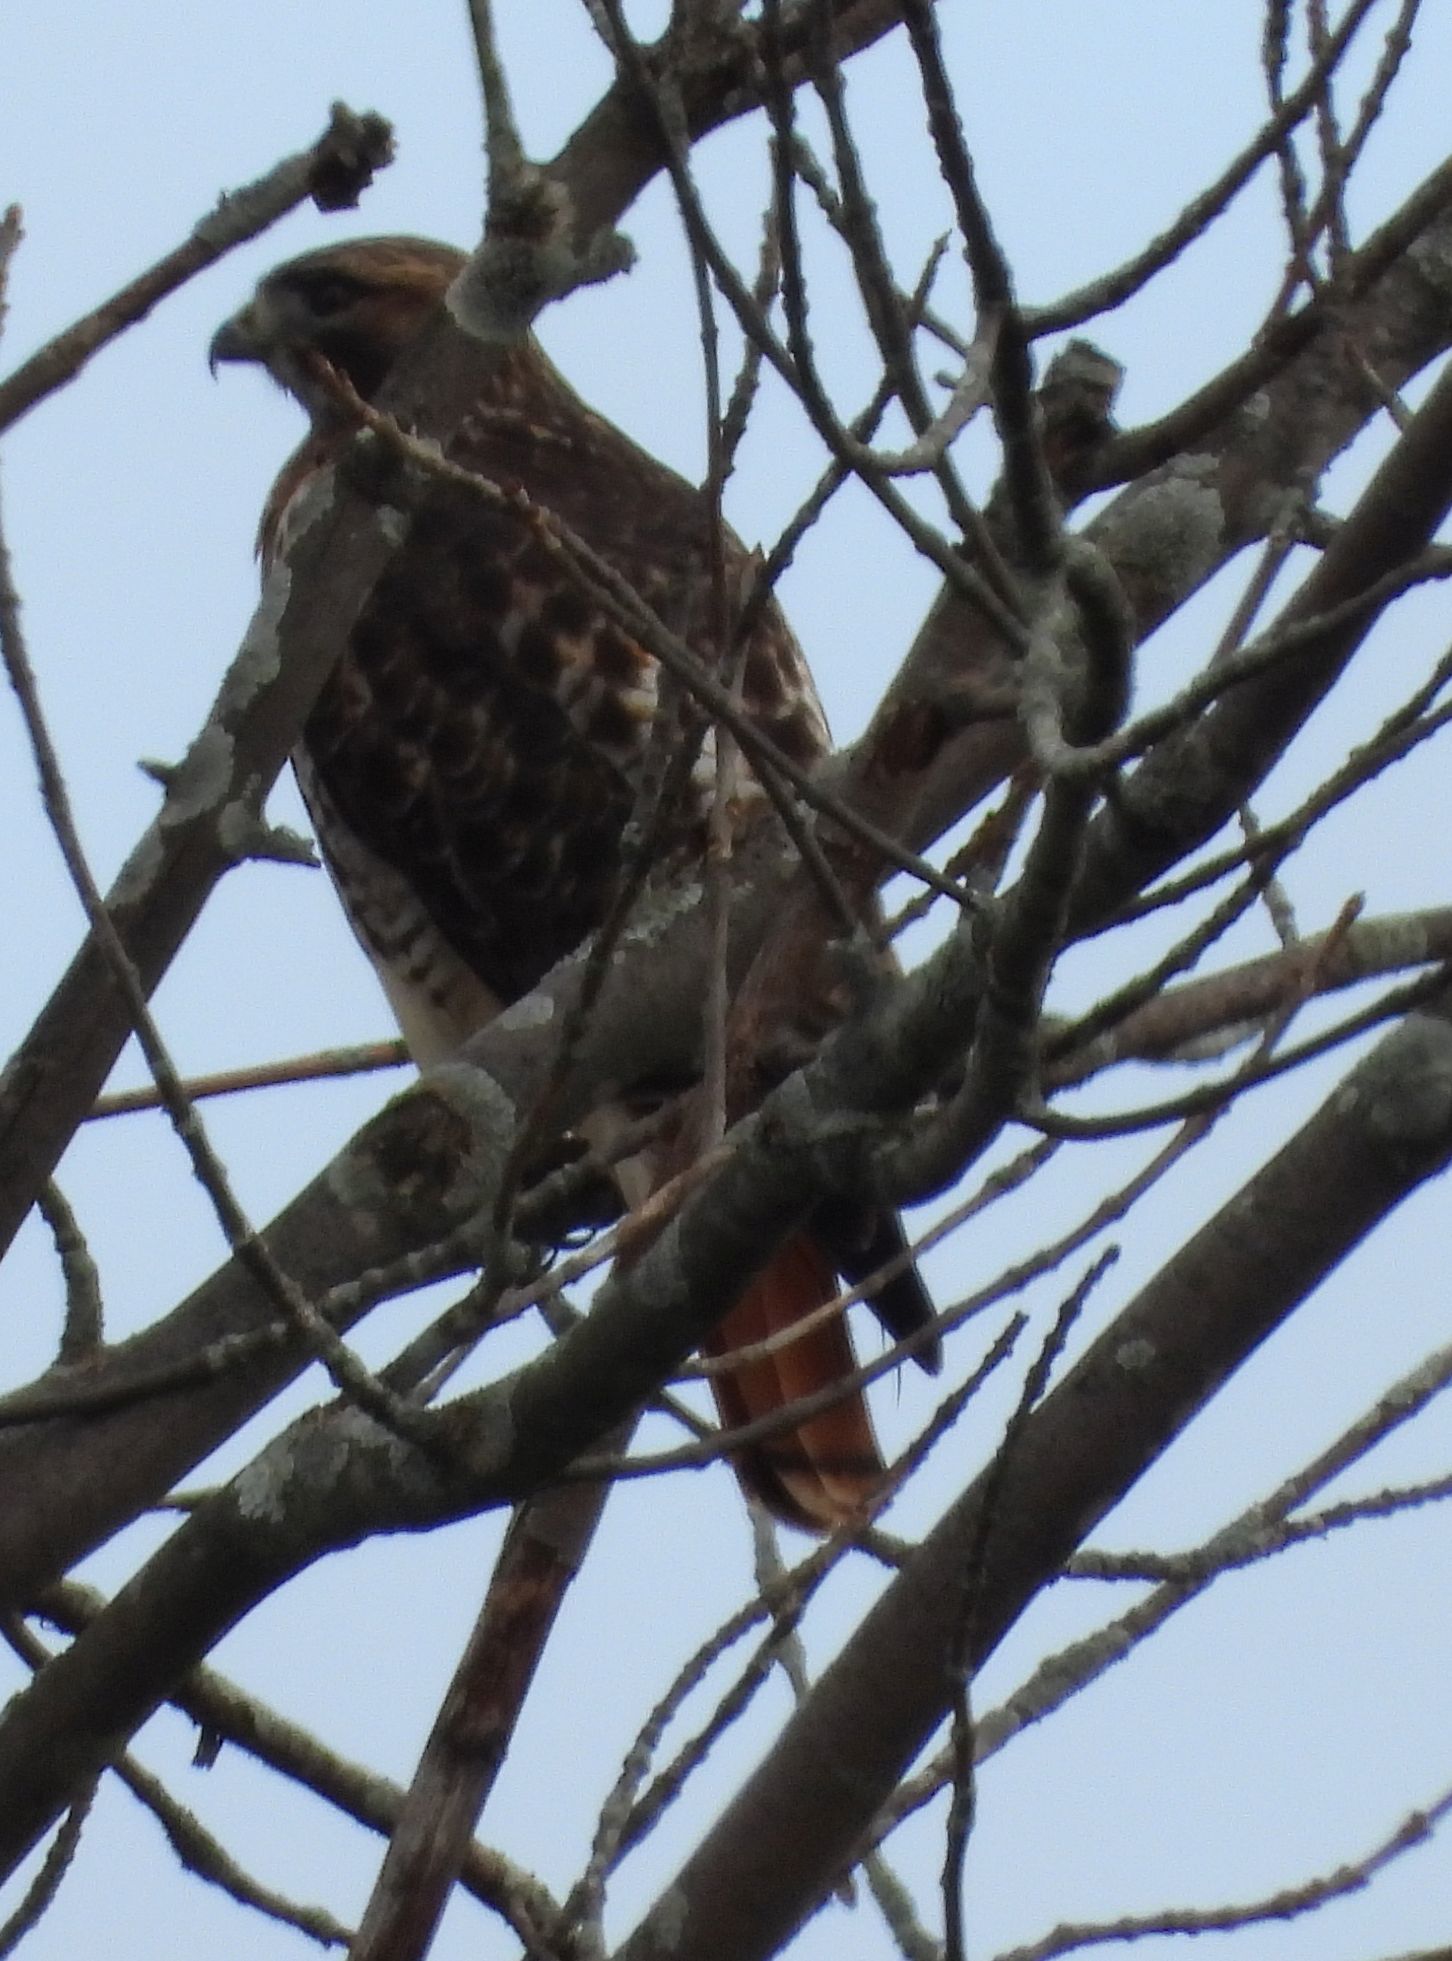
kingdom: Animalia
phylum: Chordata
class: Aves
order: Accipitriformes
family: Accipitridae
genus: Buteo
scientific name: Buteo jamaicensis
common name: Red-tailed hawk
